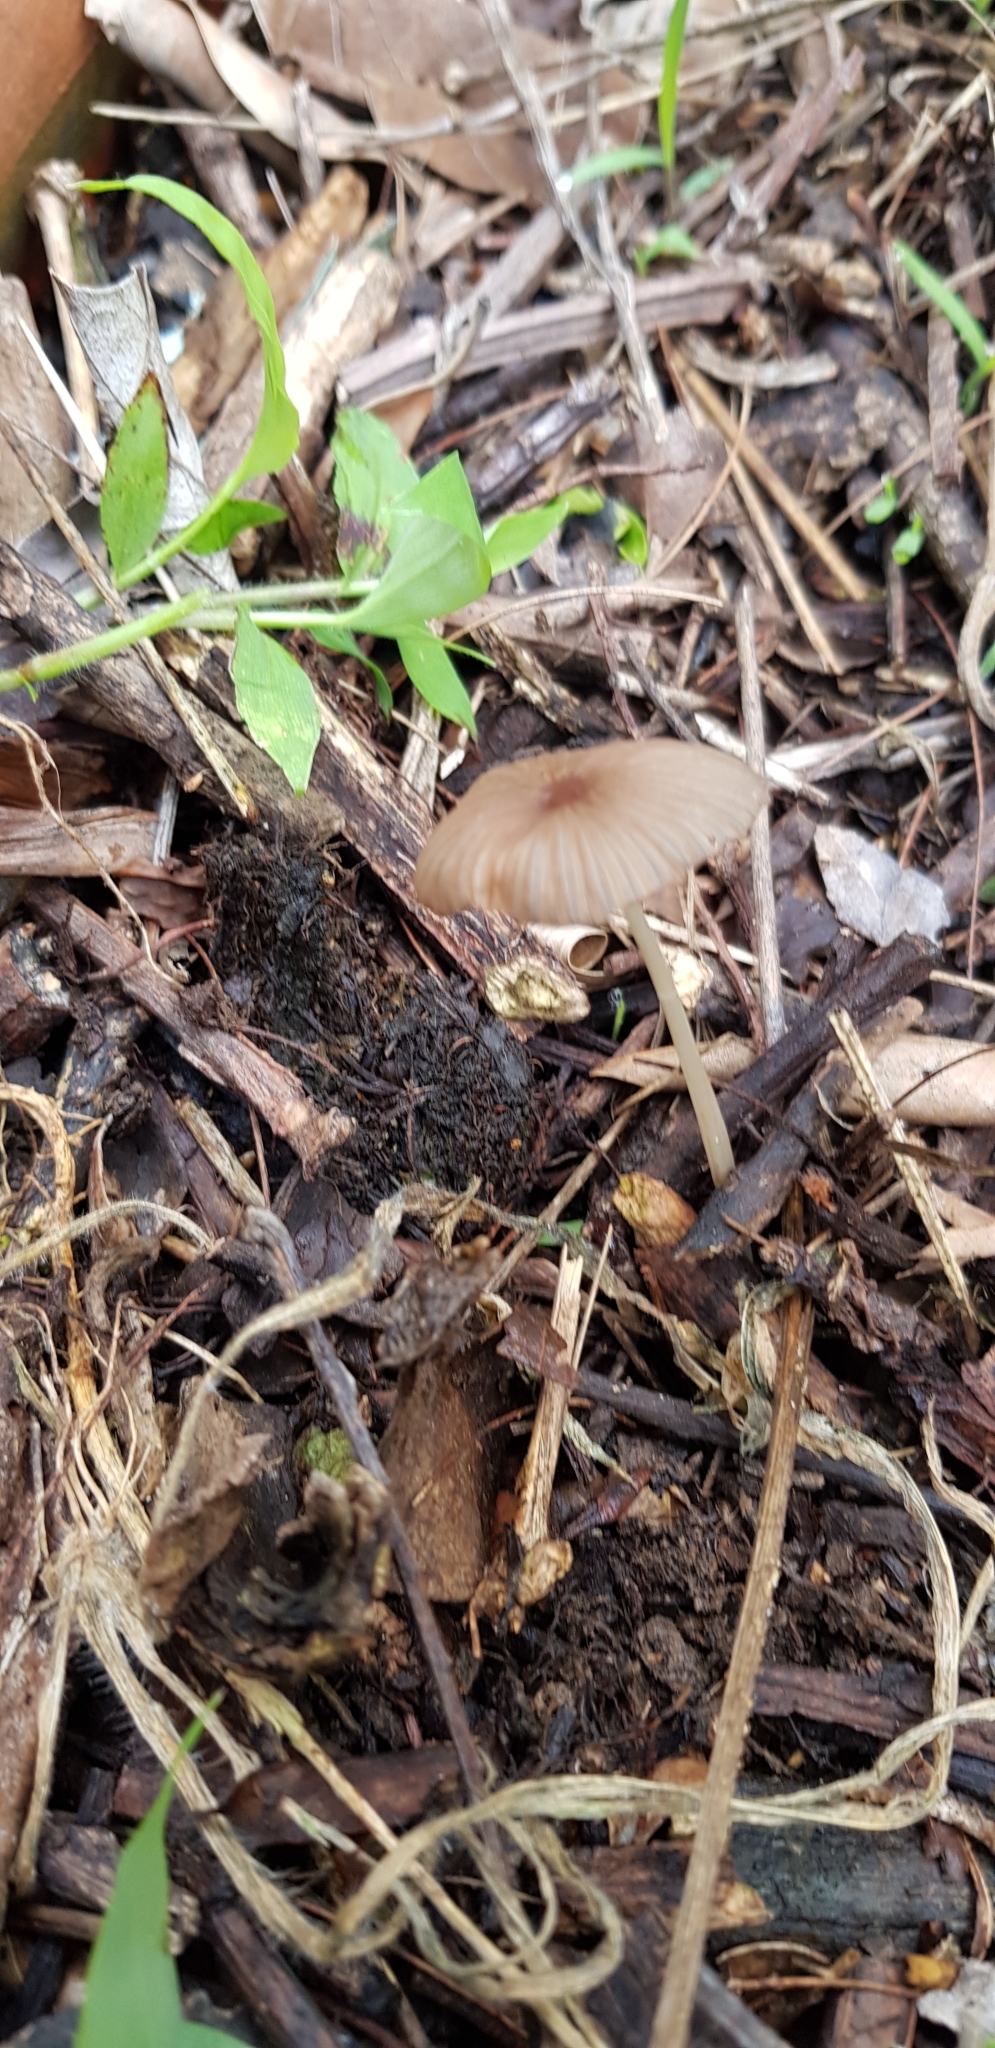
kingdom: Fungi
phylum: Basidiomycota
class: Agaricomycetes
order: Agaricales
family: Psathyrellaceae
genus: Parasola
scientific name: Parasola auricoma
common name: Goldenhaired inkcap
